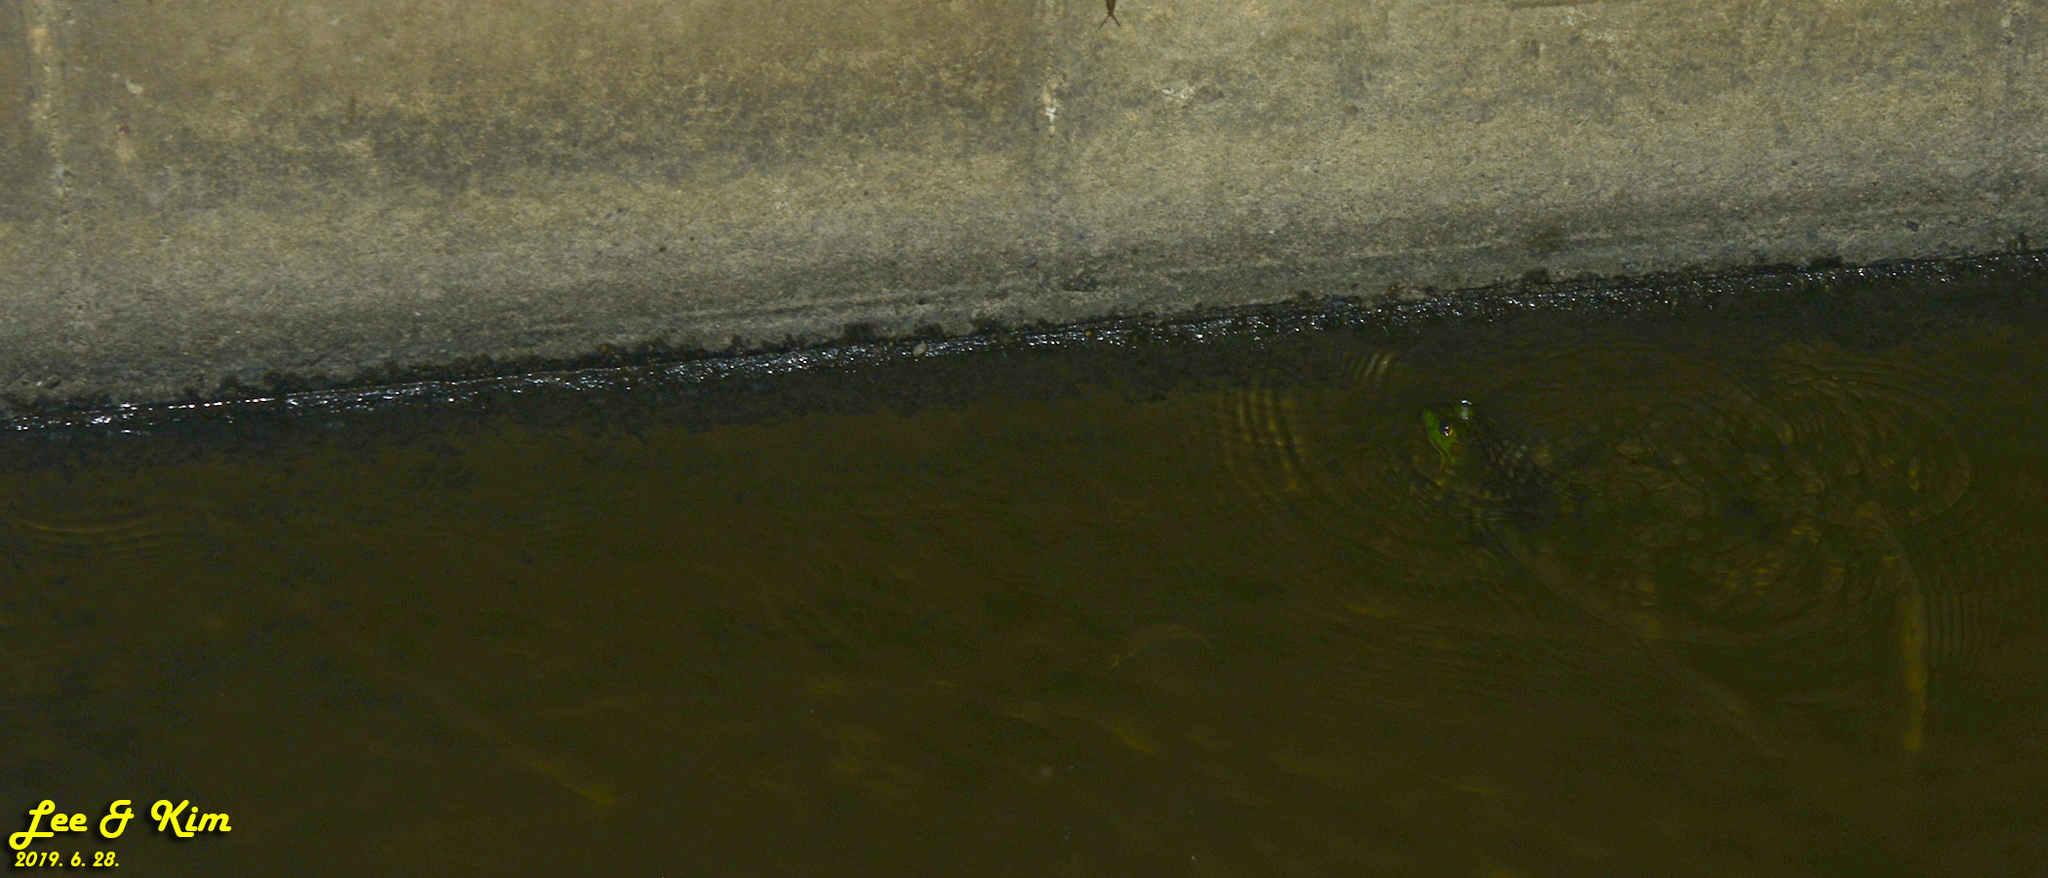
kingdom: Animalia
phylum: Chordata
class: Amphibia
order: Anura
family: Ranidae
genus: Lithobates
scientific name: Lithobates catesbeianus
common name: American bullfrog
